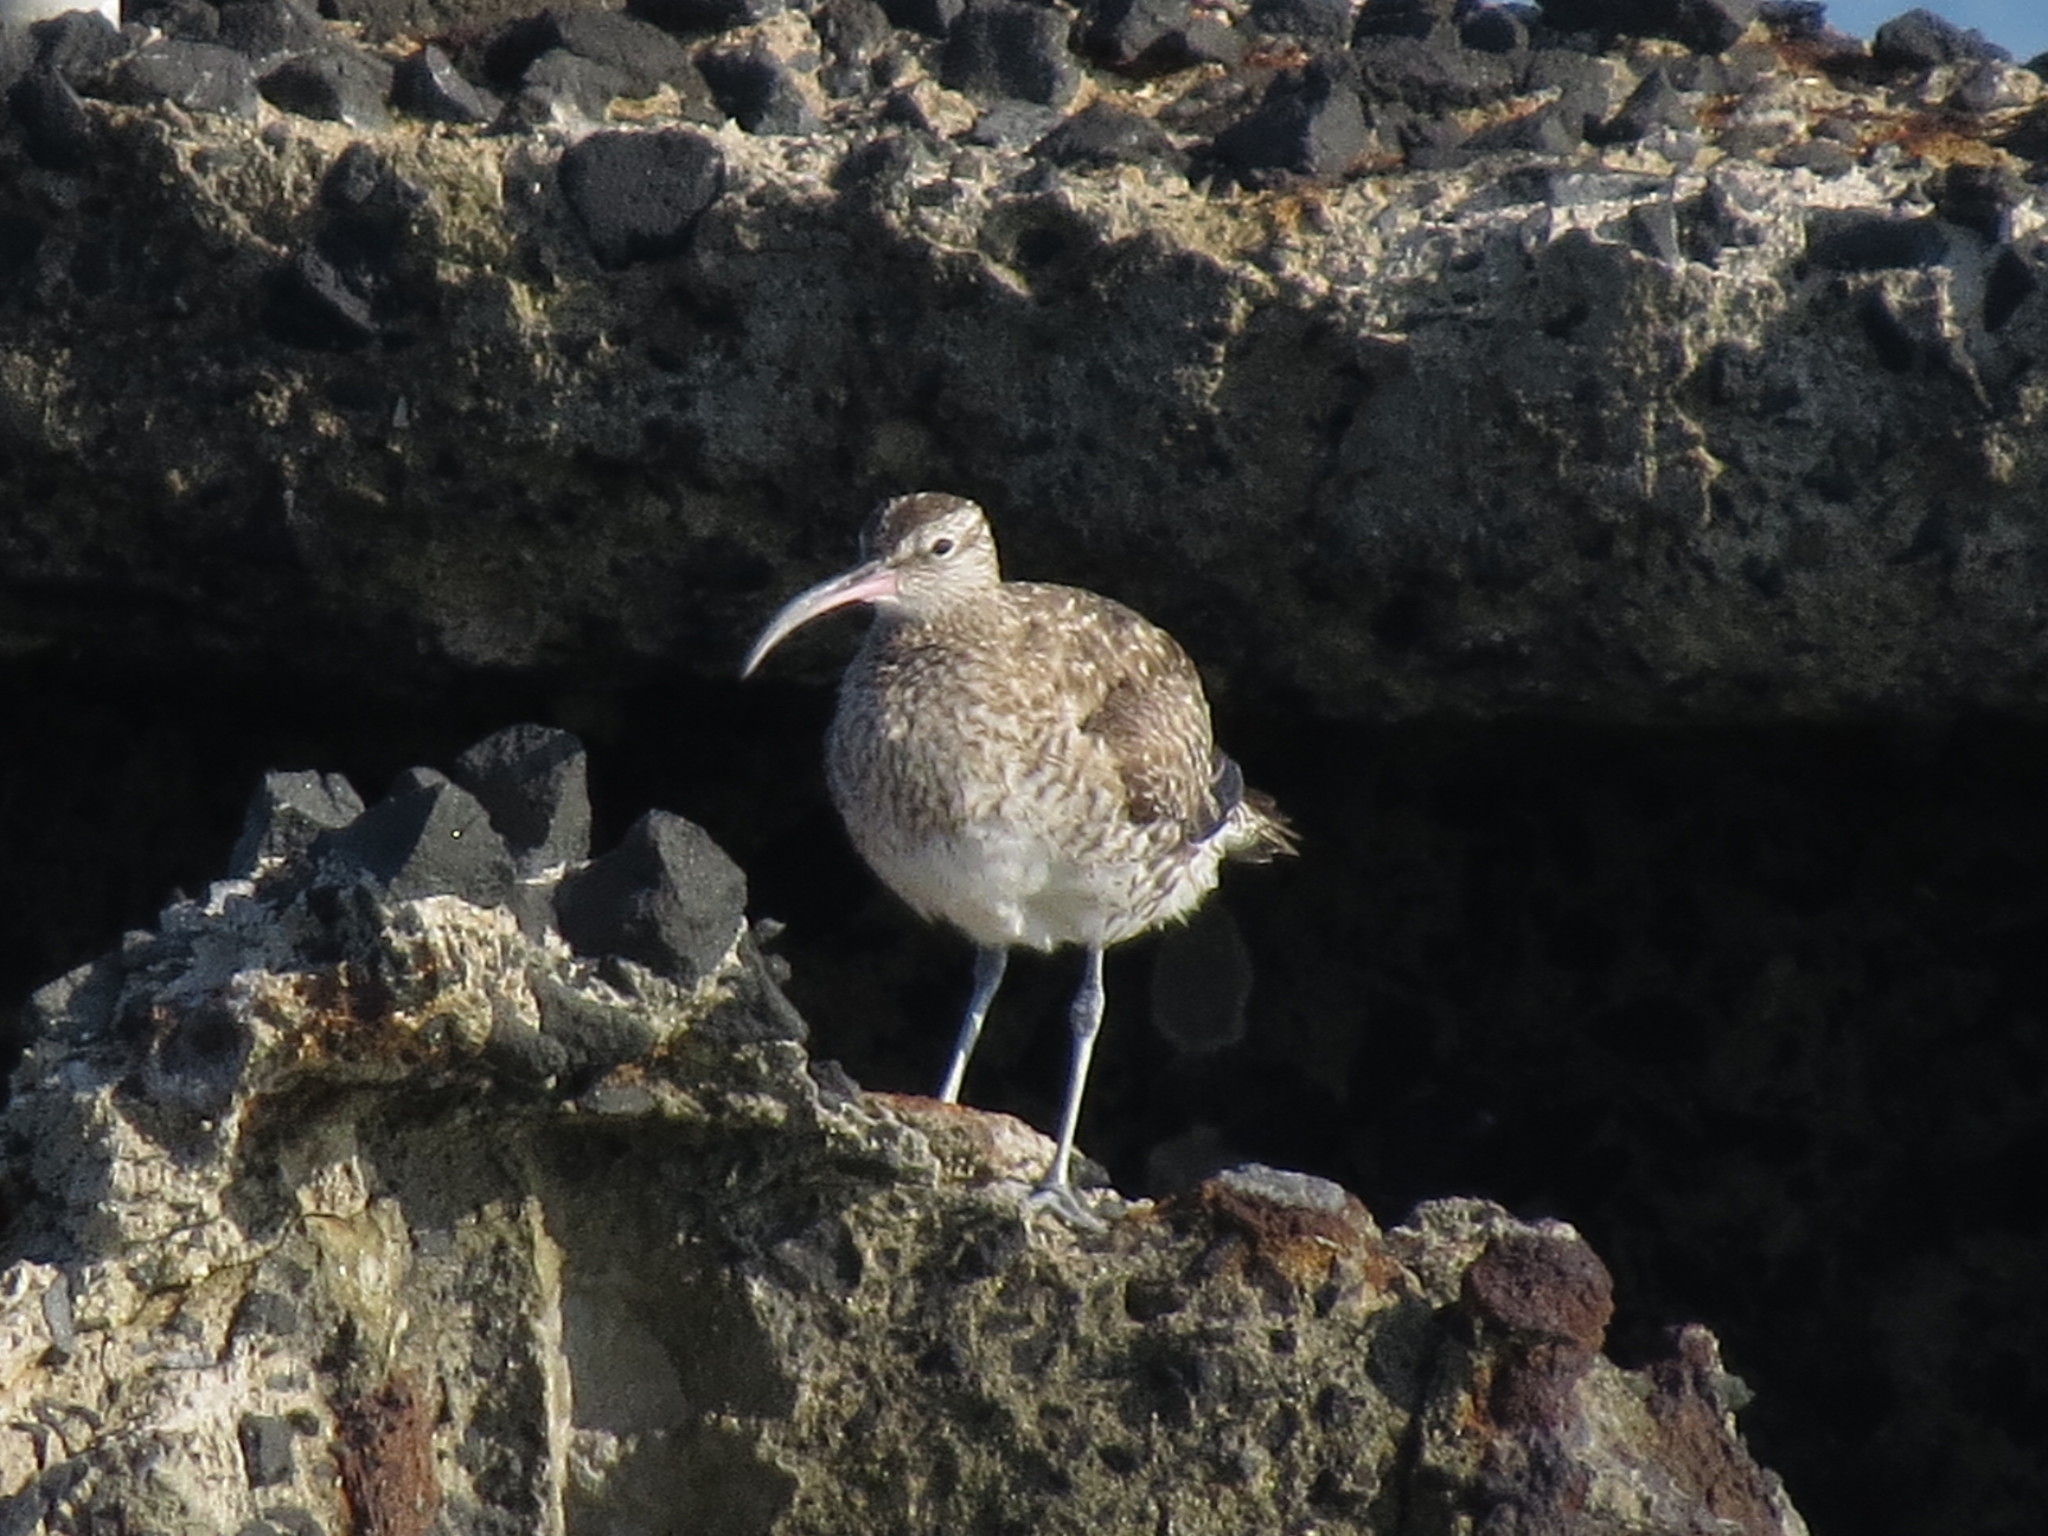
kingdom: Animalia
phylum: Chordata
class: Aves
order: Charadriiformes
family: Scolopacidae
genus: Numenius
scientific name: Numenius phaeopus
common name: Whimbrel
